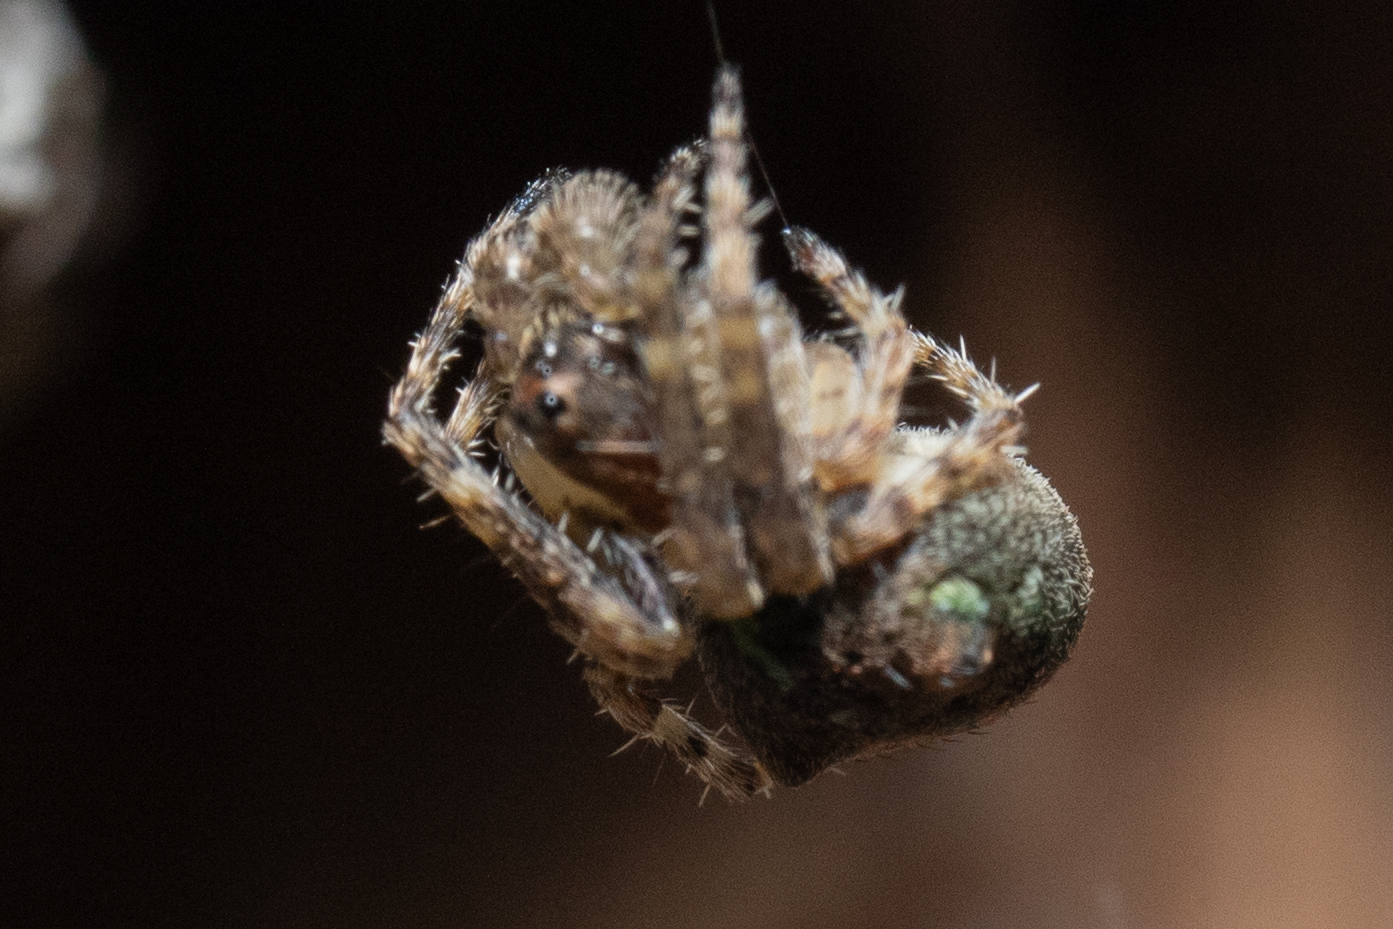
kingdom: Animalia
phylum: Arthropoda
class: Arachnida
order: Araneae
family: Araneidae
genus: Gibbaranea
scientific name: Gibbaranea gibbosa
